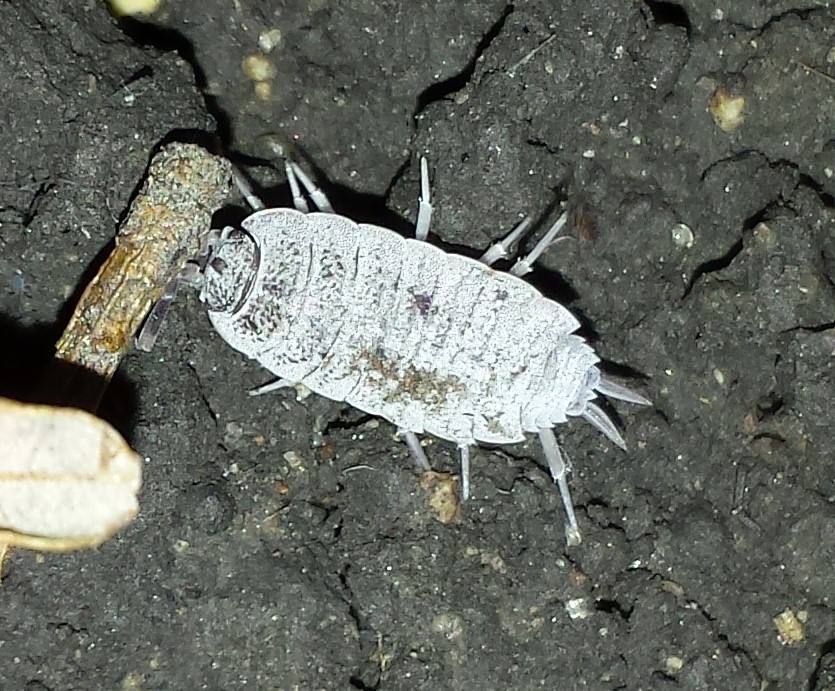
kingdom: Animalia
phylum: Arthropoda
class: Malacostraca
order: Isopoda
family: Porcellionidae
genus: Porcellionides
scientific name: Porcellionides pruinosus
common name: Plum woodlouse
